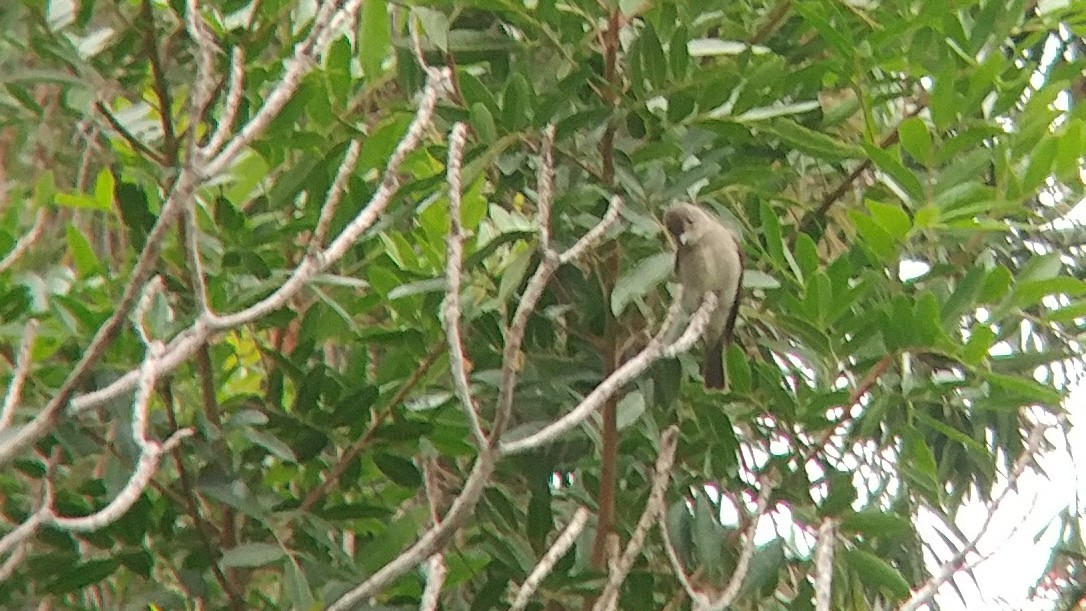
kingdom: Animalia
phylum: Chordata
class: Aves
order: Passeriformes
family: Tyrannidae
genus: Contopus
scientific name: Contopus sordidulus
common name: Western wood-pewee
